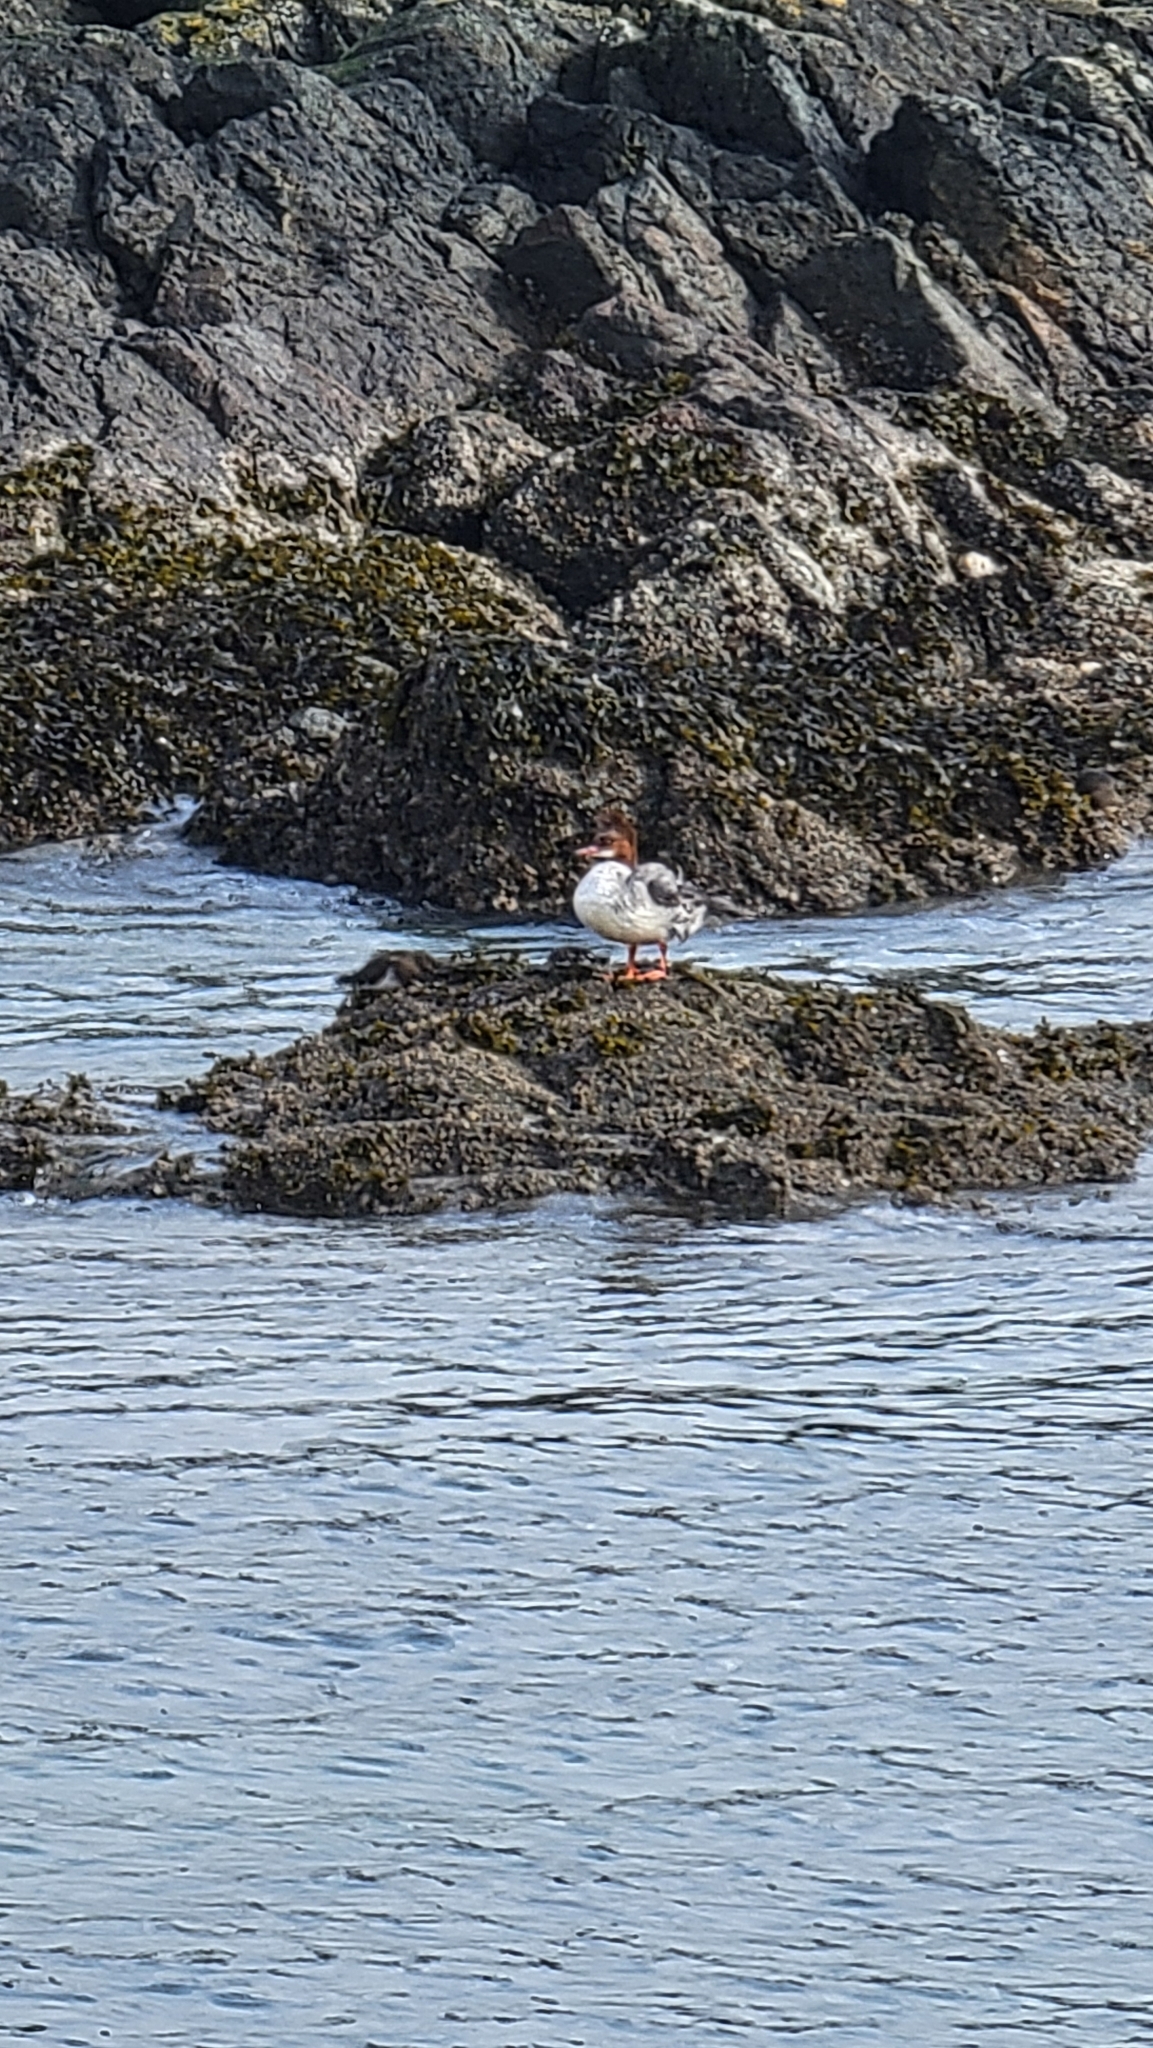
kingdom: Animalia
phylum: Chordata
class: Aves
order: Anseriformes
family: Anatidae
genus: Mergus
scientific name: Mergus merganser
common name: Common merganser
